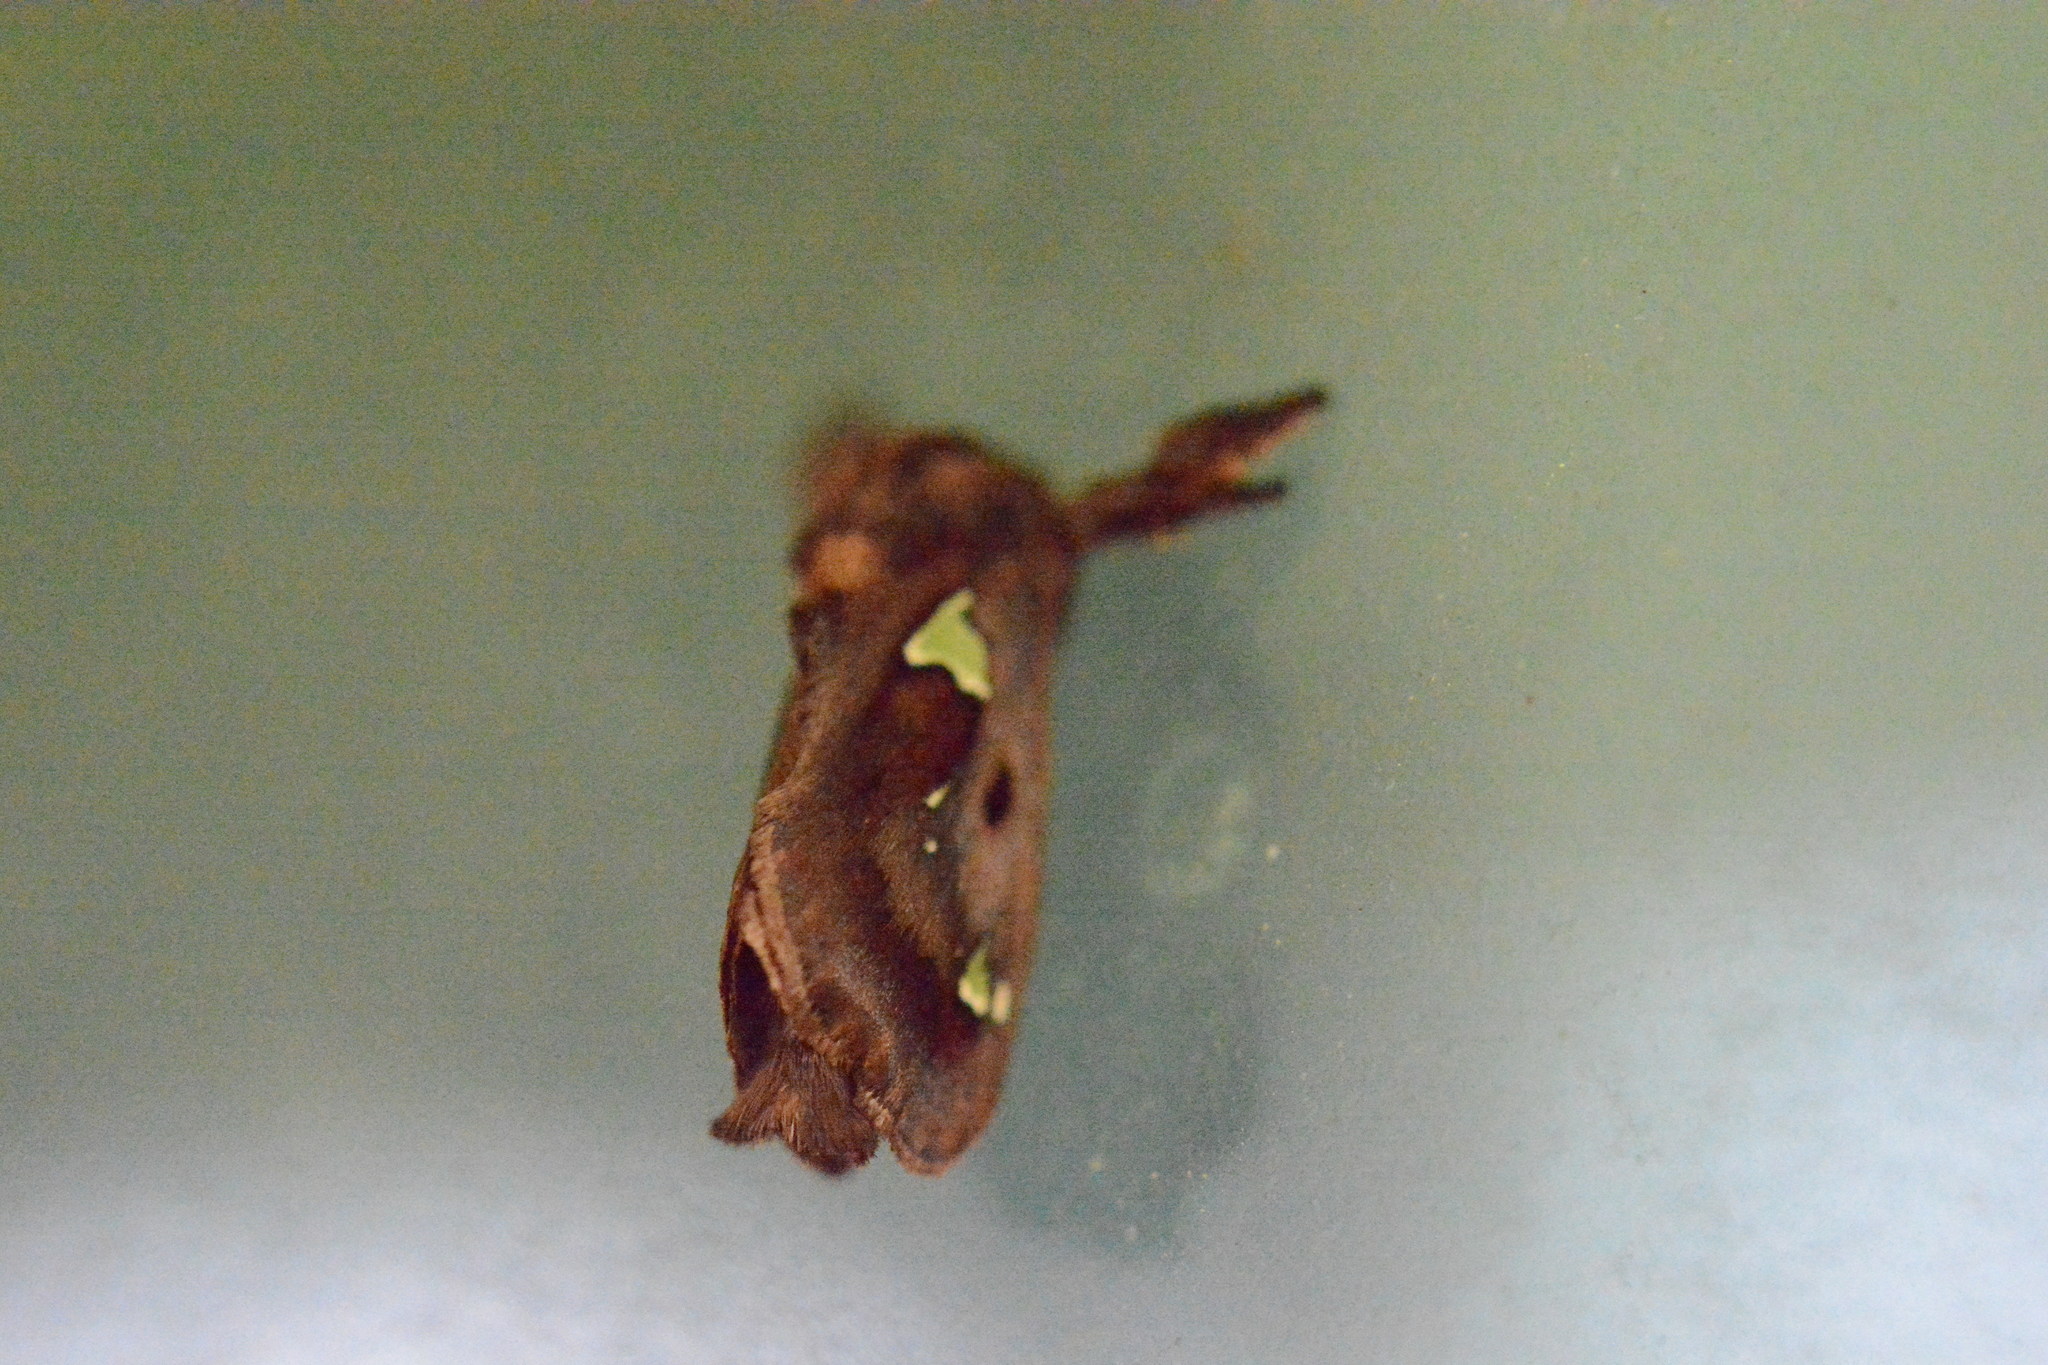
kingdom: Animalia
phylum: Arthropoda
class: Insecta
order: Lepidoptera
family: Limacodidae
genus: Euclea
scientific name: Euclea delphinii
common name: Spiny oak-slug moth
